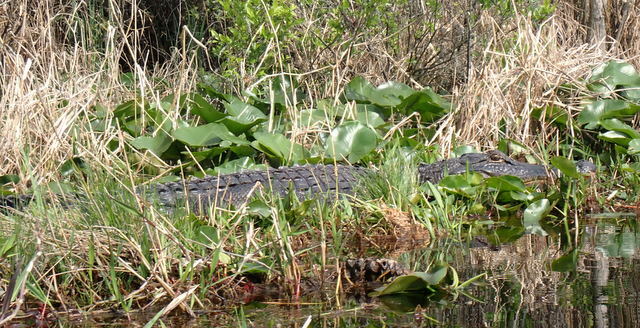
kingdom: Animalia
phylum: Chordata
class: Crocodylia
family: Alligatoridae
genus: Alligator
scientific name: Alligator mississippiensis
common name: American alligator
